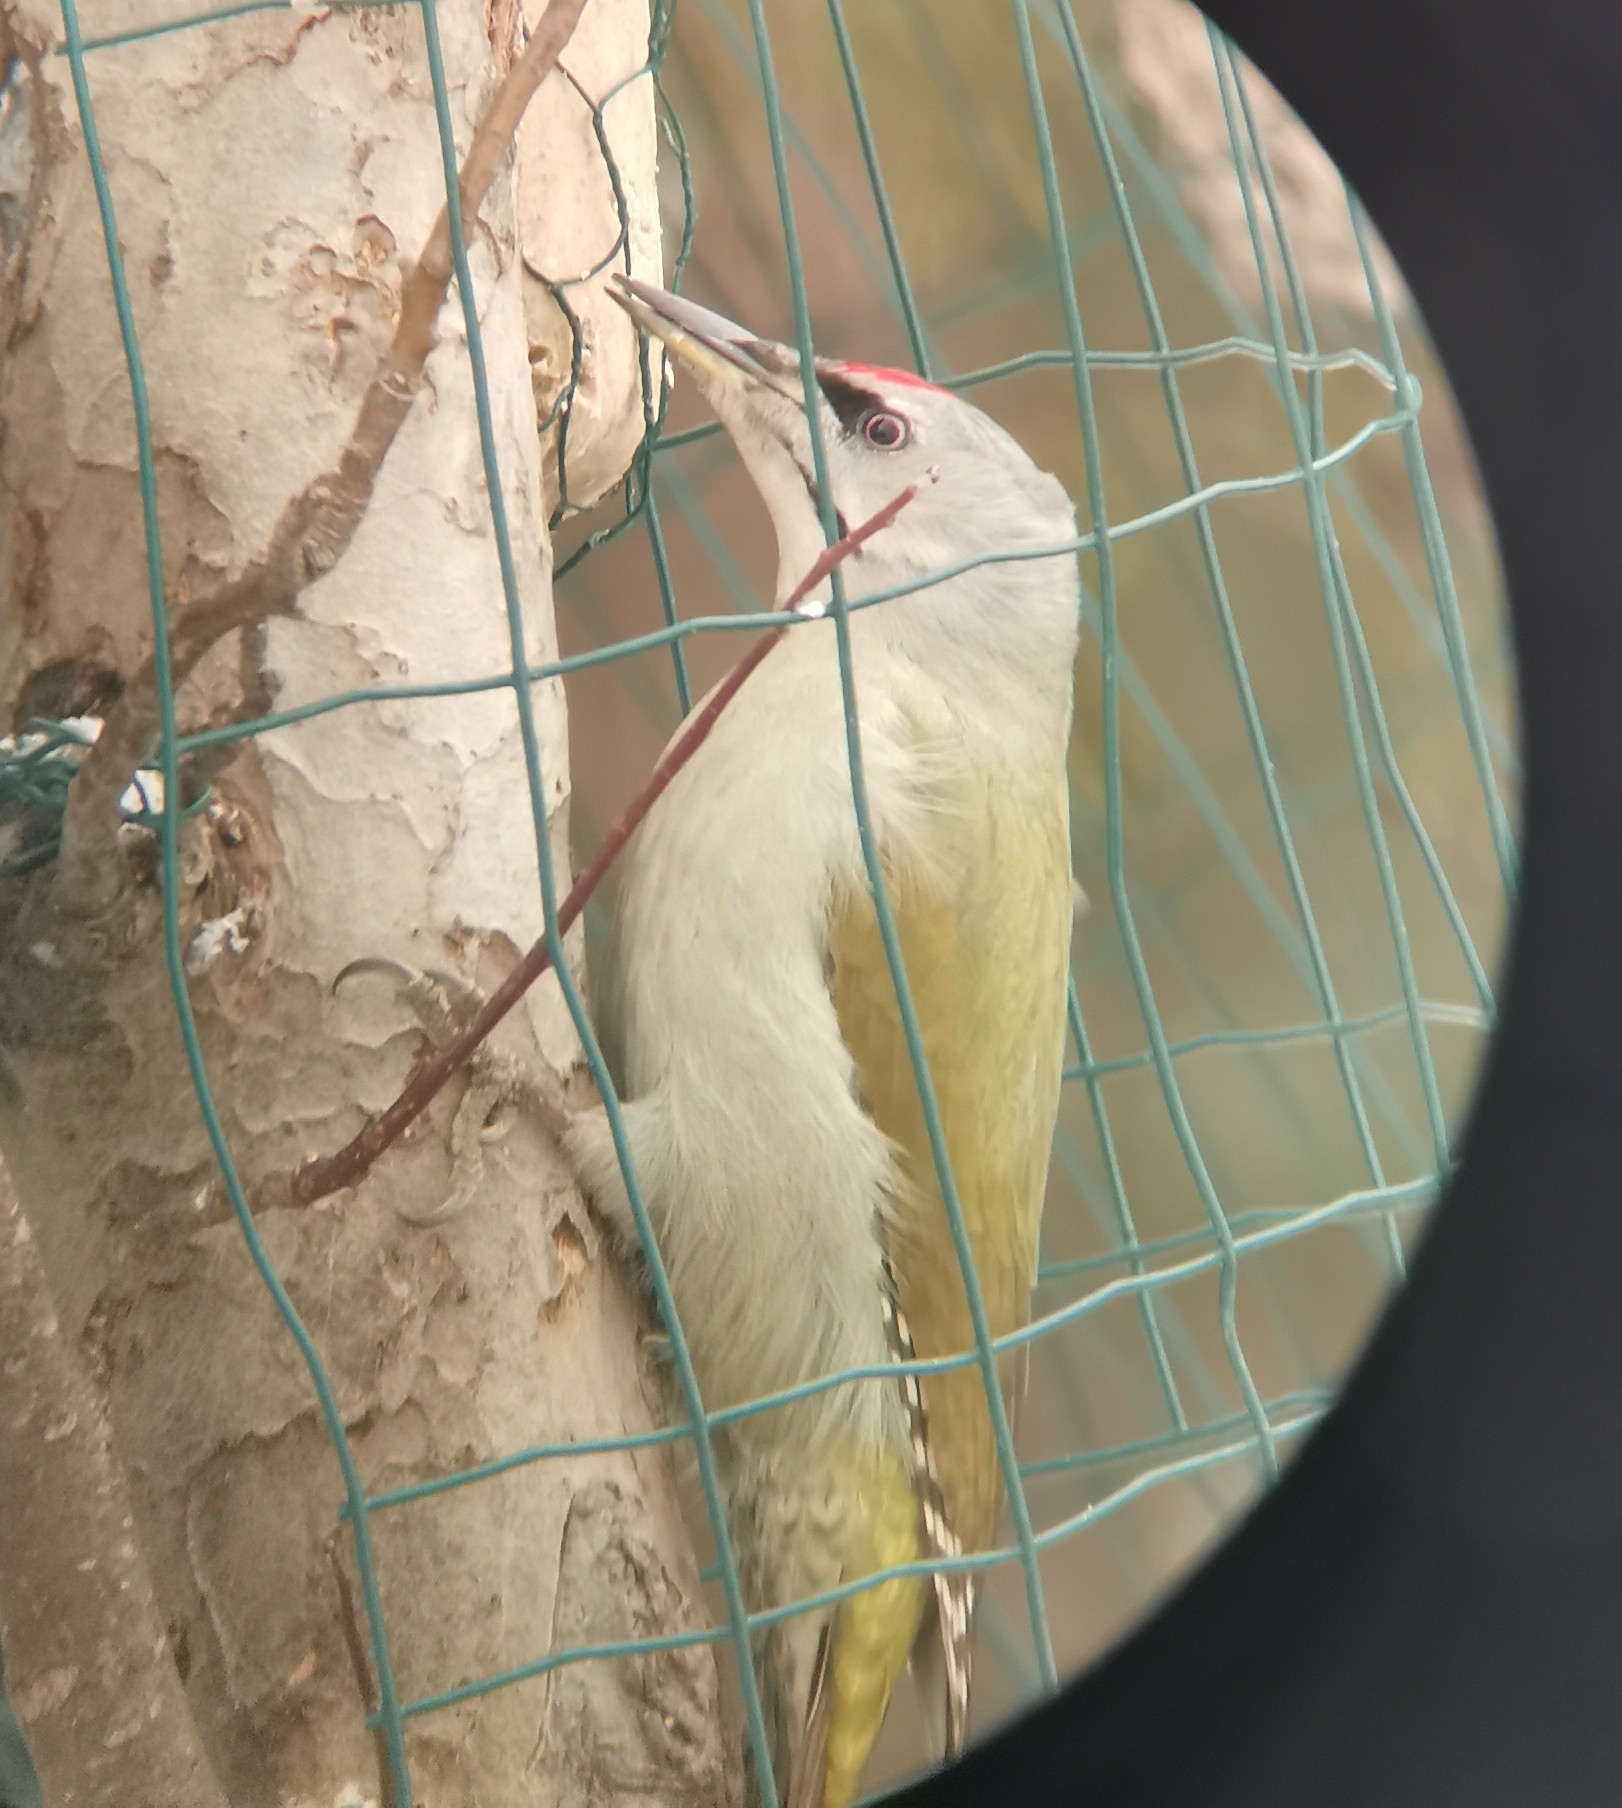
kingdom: Animalia
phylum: Chordata
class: Aves
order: Piciformes
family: Picidae
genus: Picus
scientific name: Picus canus
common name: Grey-headed woodpecker
